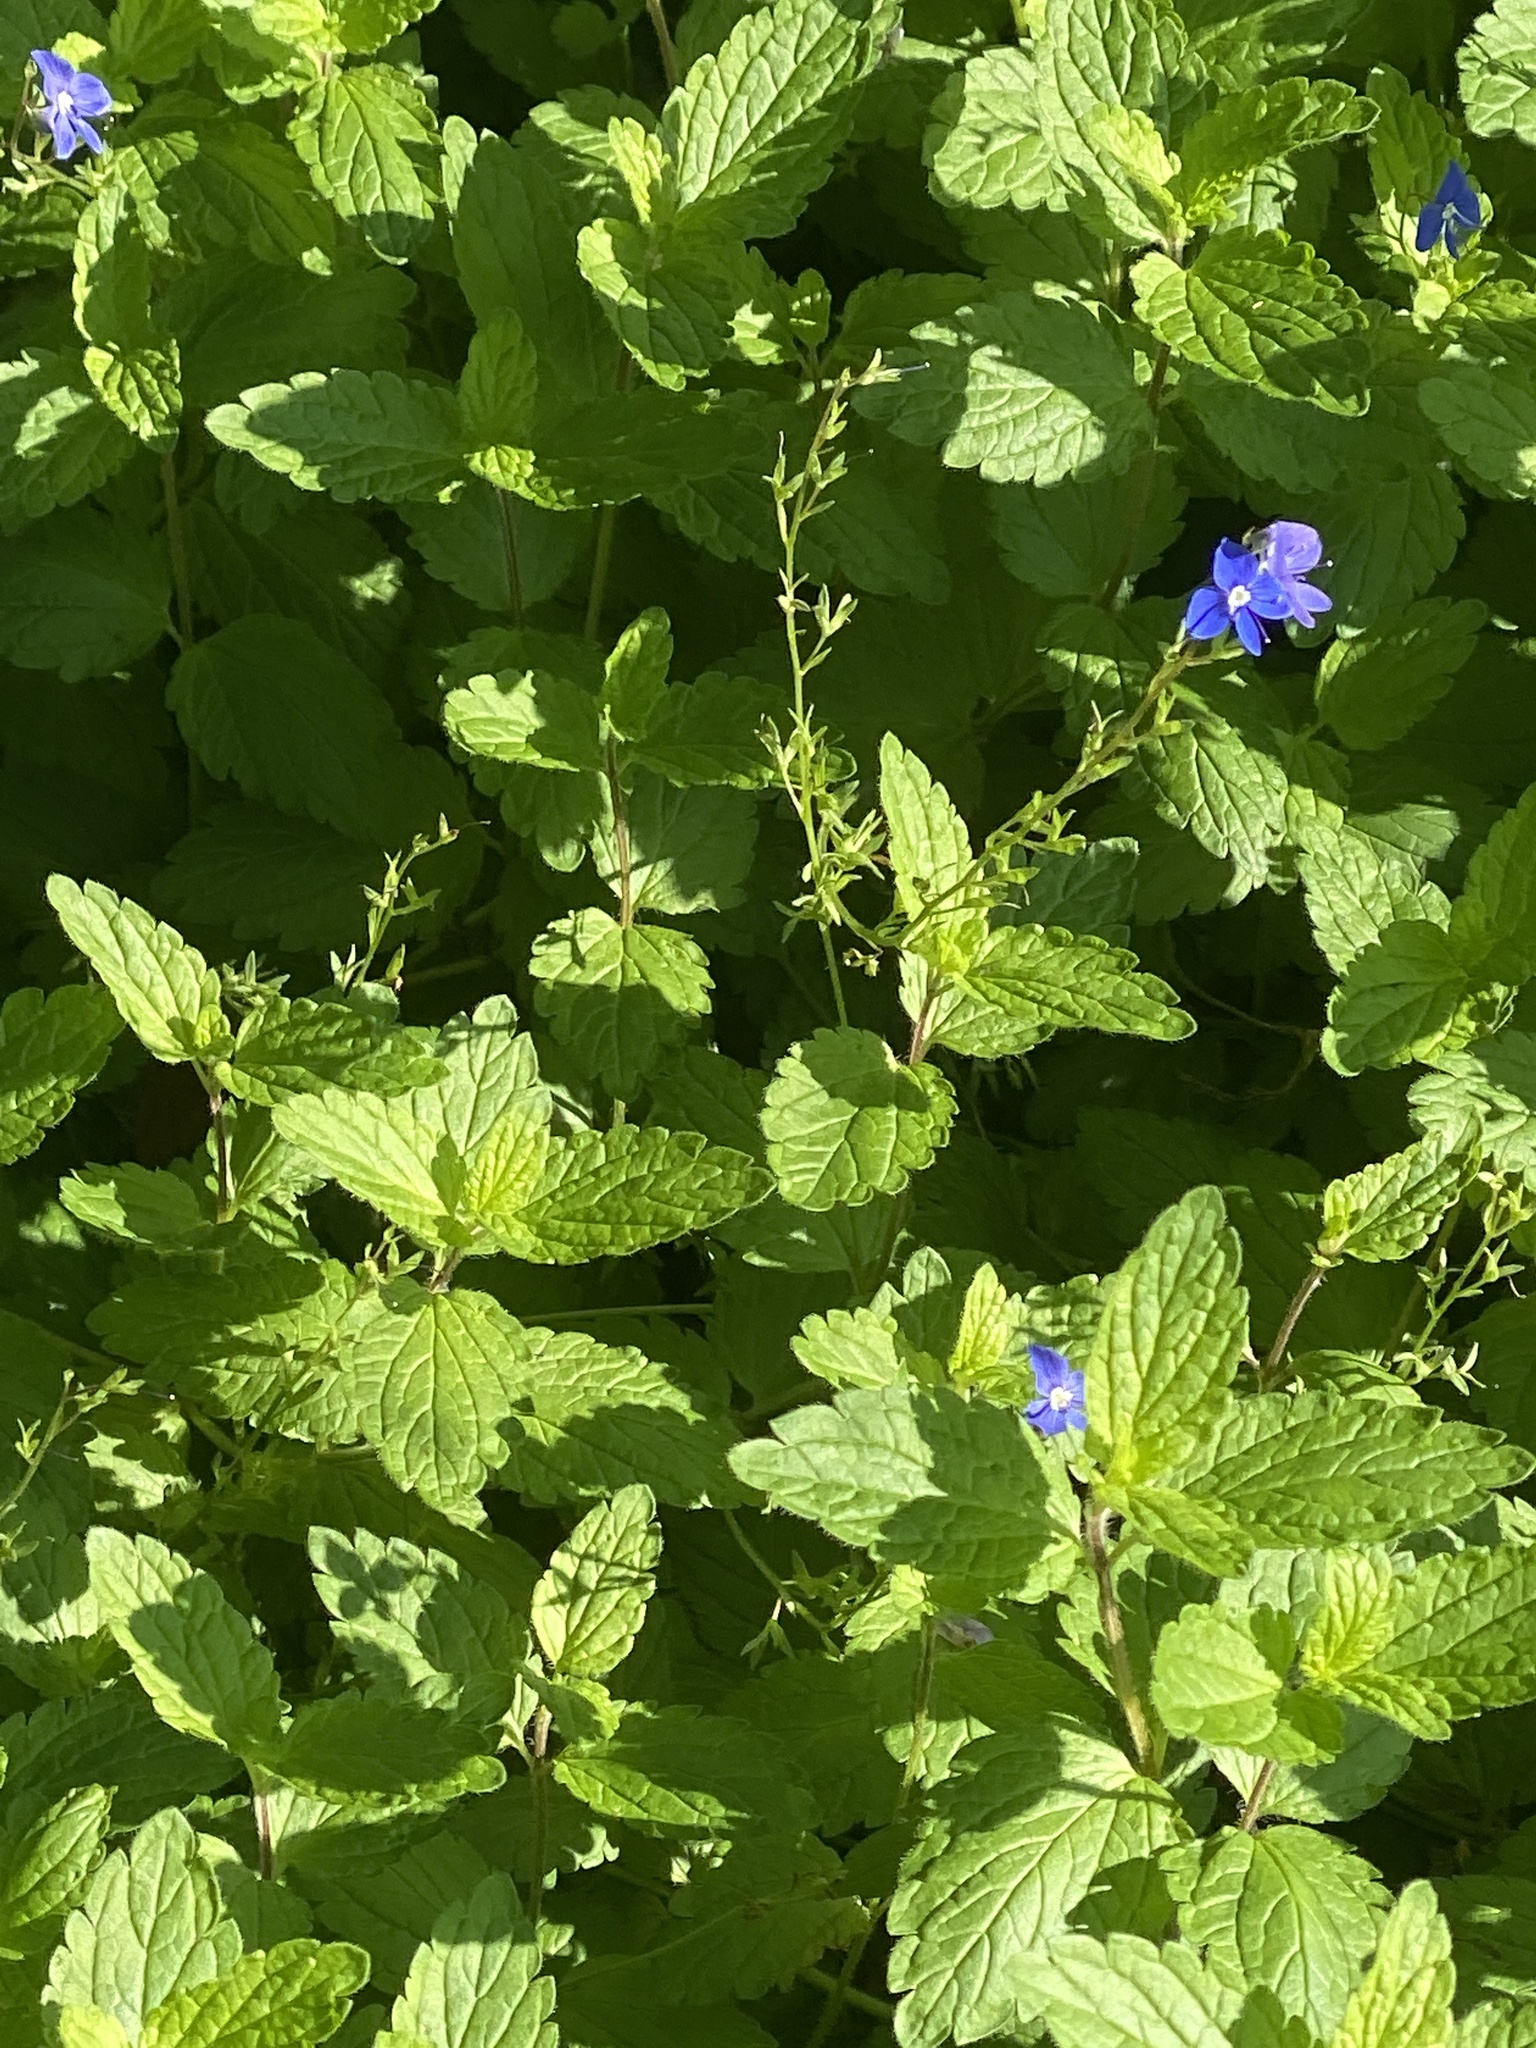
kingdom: Plantae
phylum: Tracheophyta
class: Magnoliopsida
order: Lamiales
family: Plantaginaceae
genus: Veronica
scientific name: Veronica chamaedrys
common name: Germander speedwell
